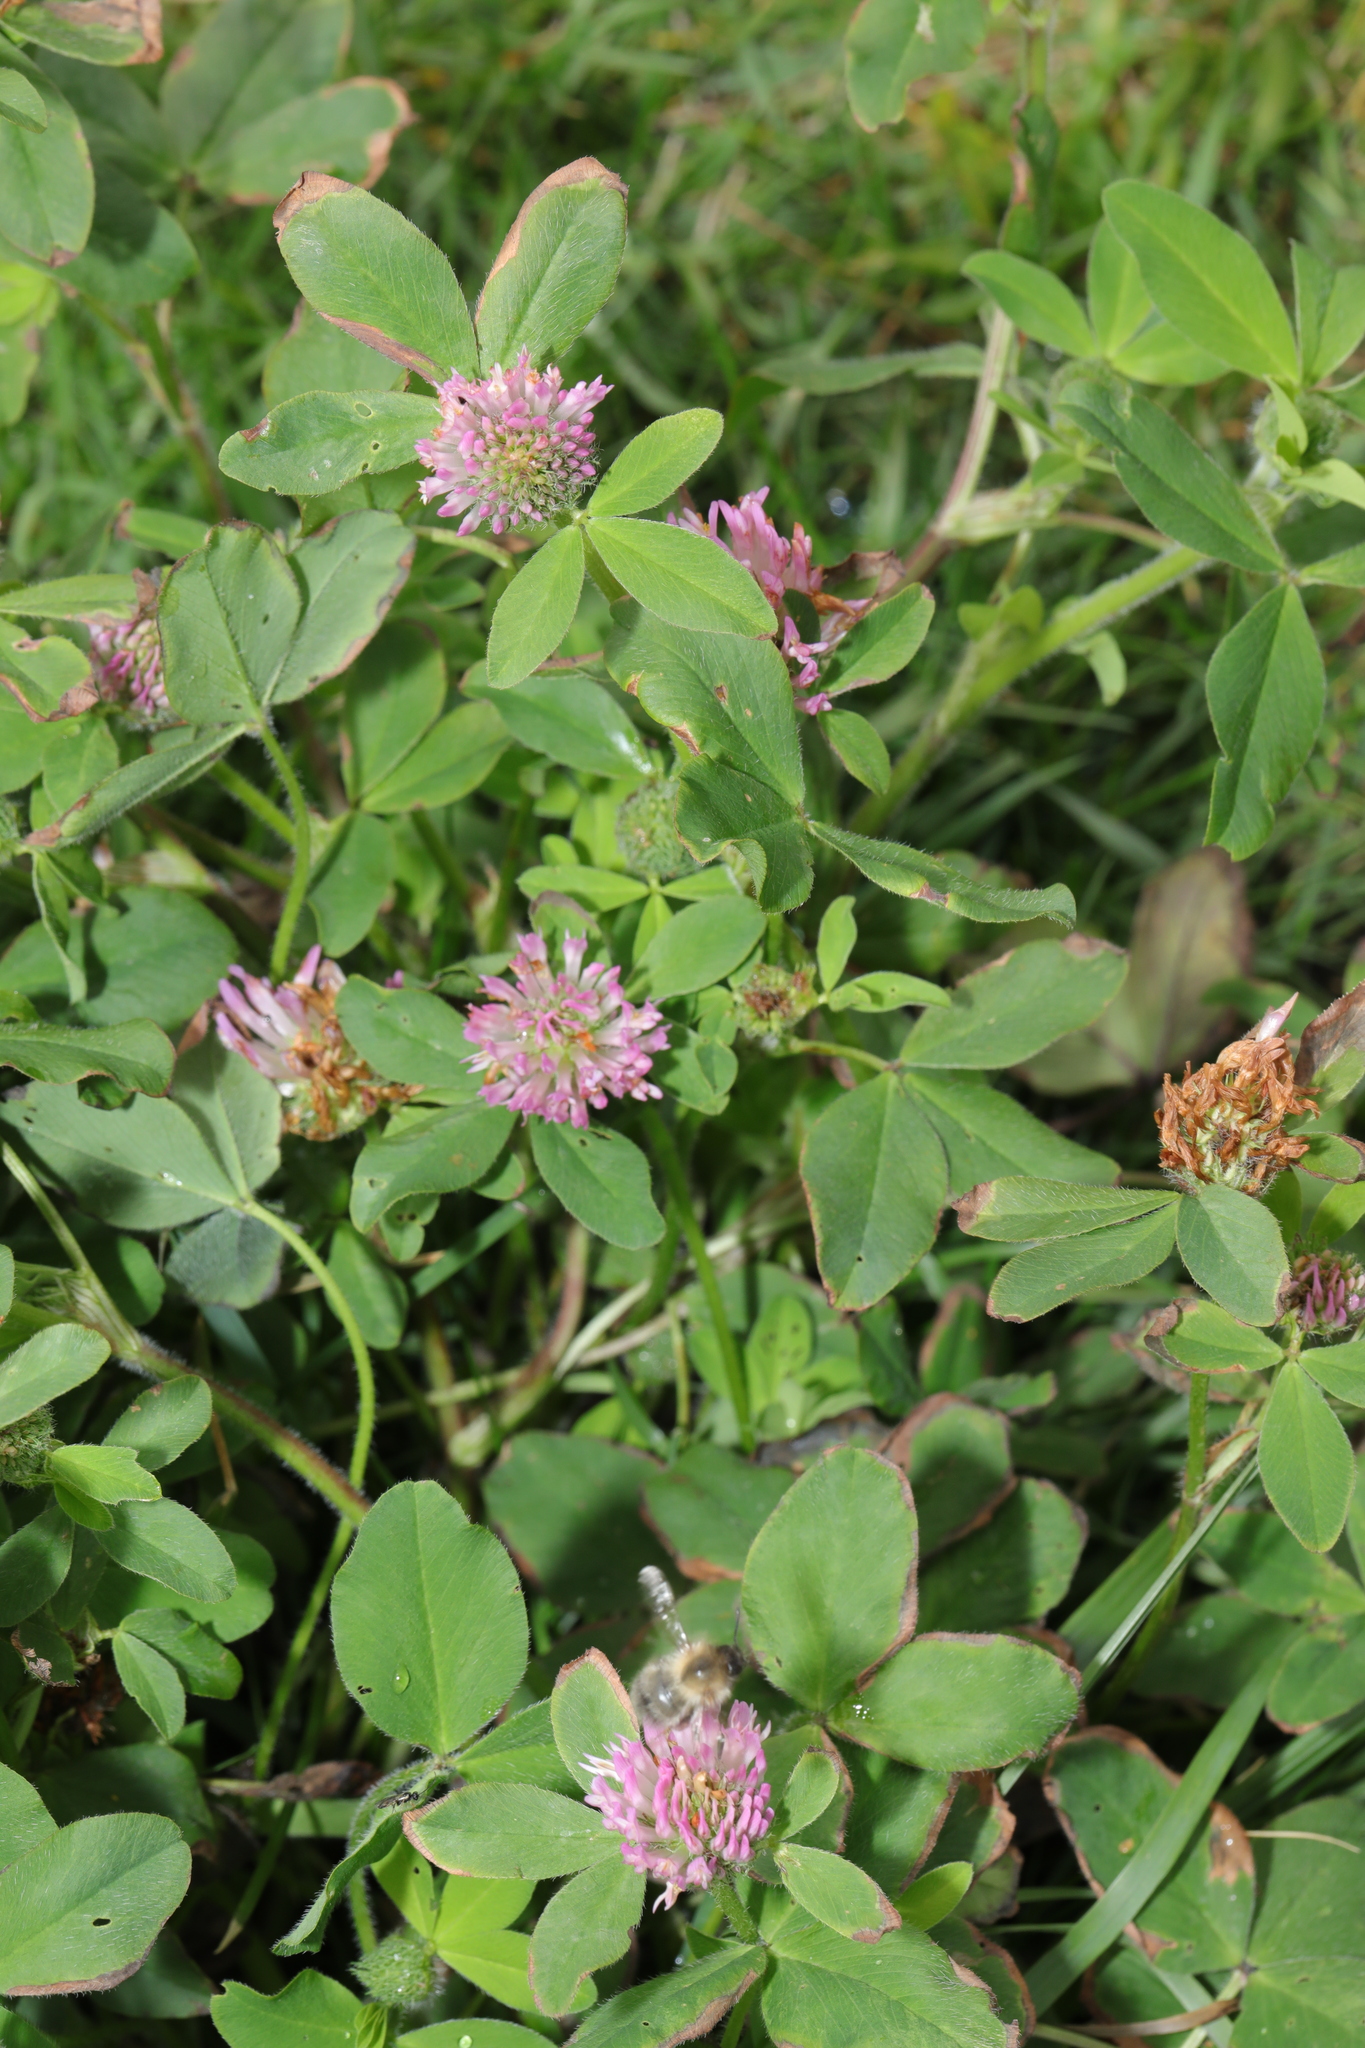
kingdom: Plantae
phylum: Tracheophyta
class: Magnoliopsida
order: Fabales
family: Fabaceae
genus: Trifolium
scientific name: Trifolium pratense
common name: Red clover
